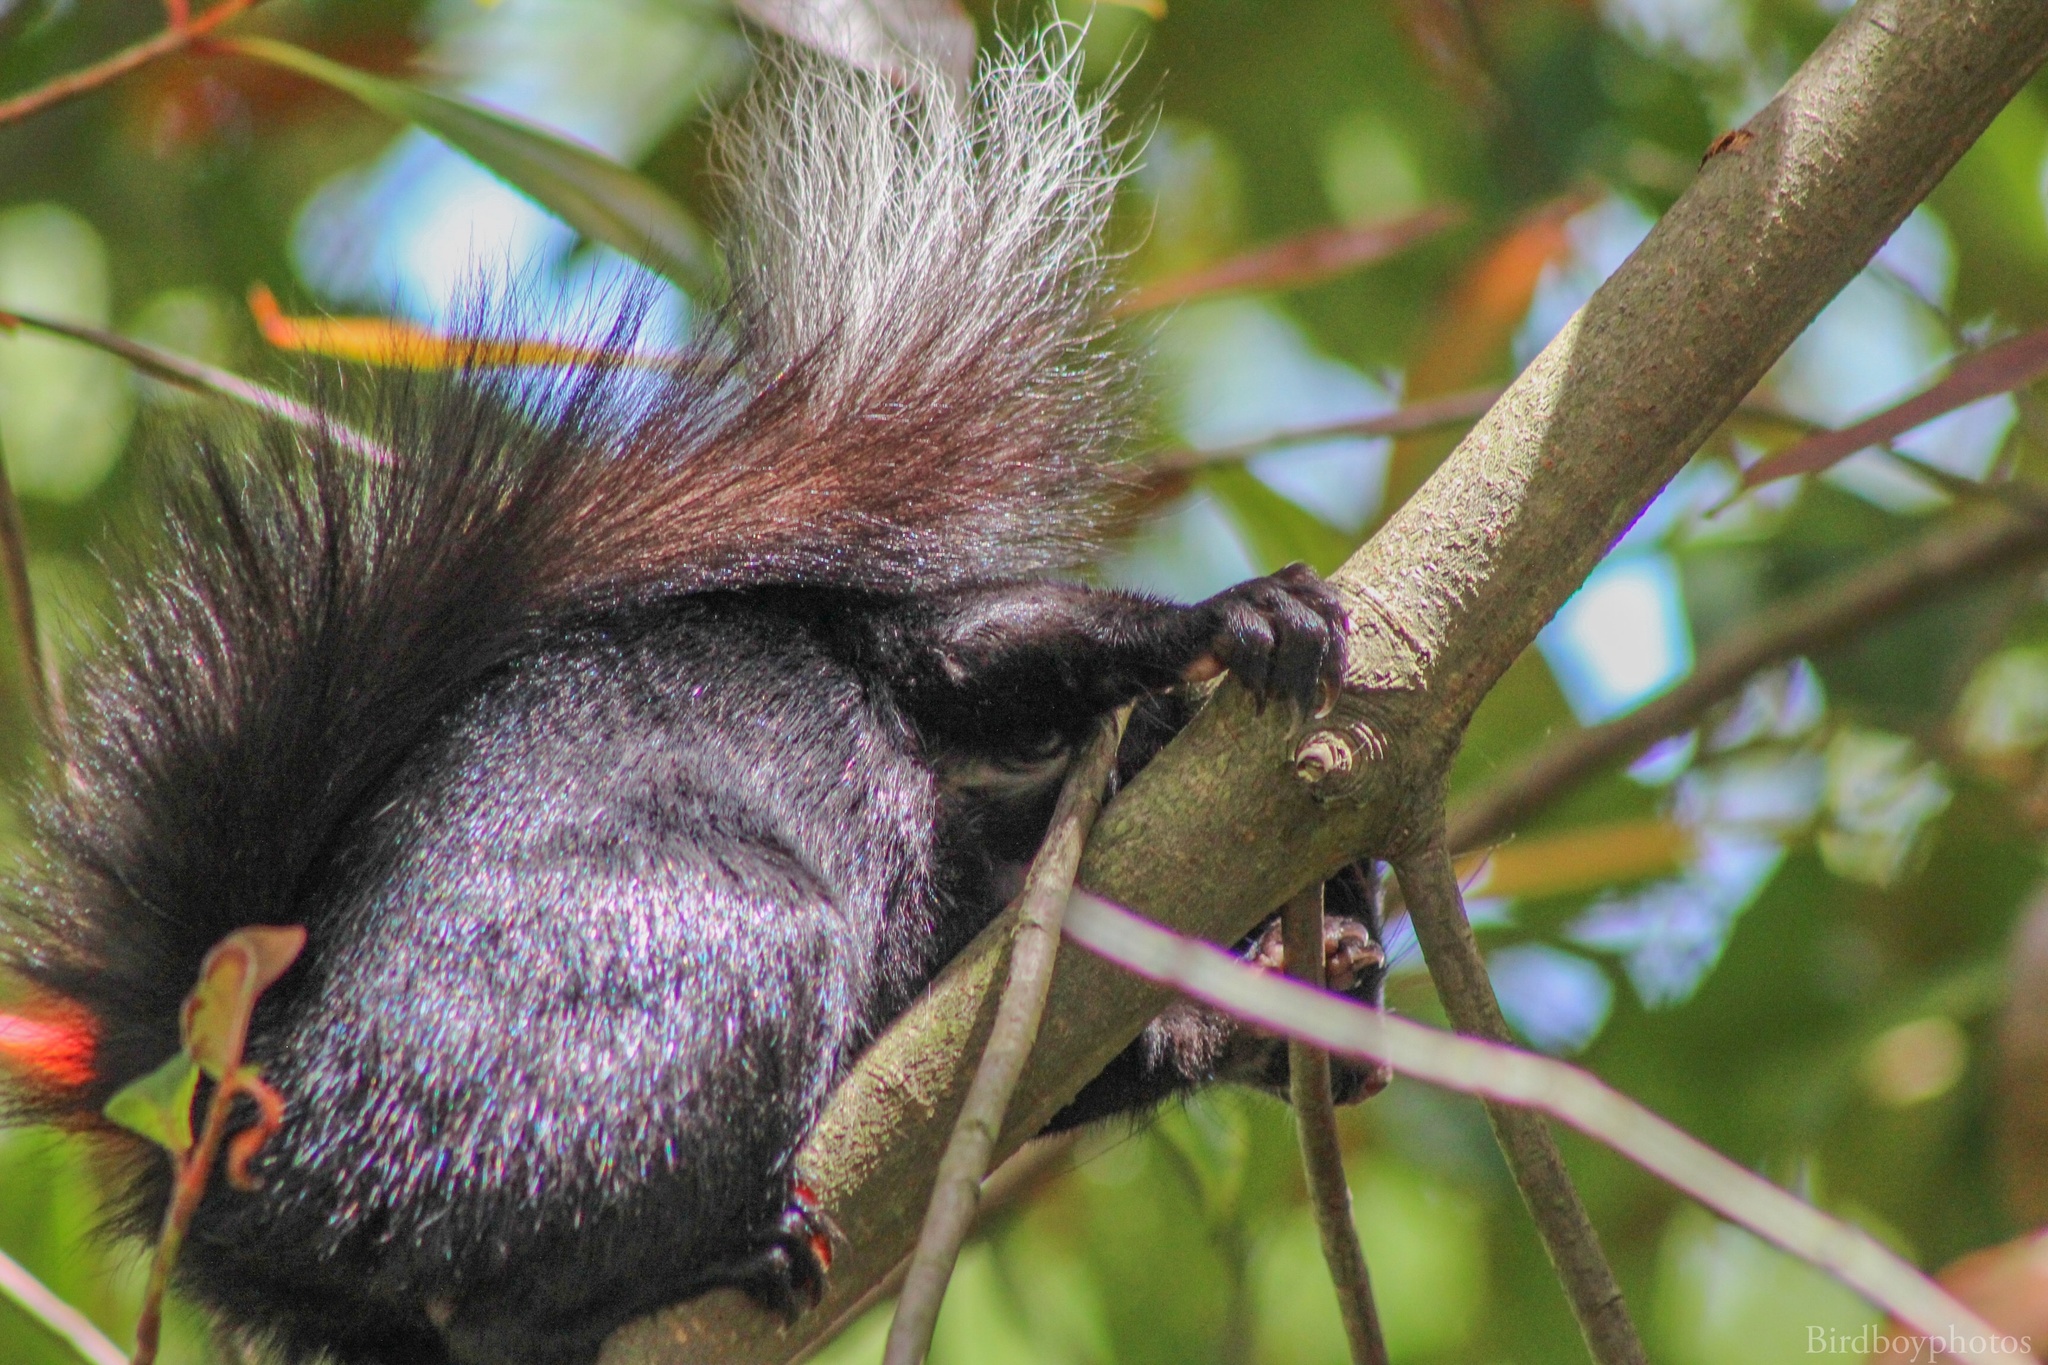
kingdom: Animalia
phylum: Chordata
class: Mammalia
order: Rodentia
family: Sciuridae
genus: Sciurus
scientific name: Sciurus carolinensis
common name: Eastern gray squirrel
